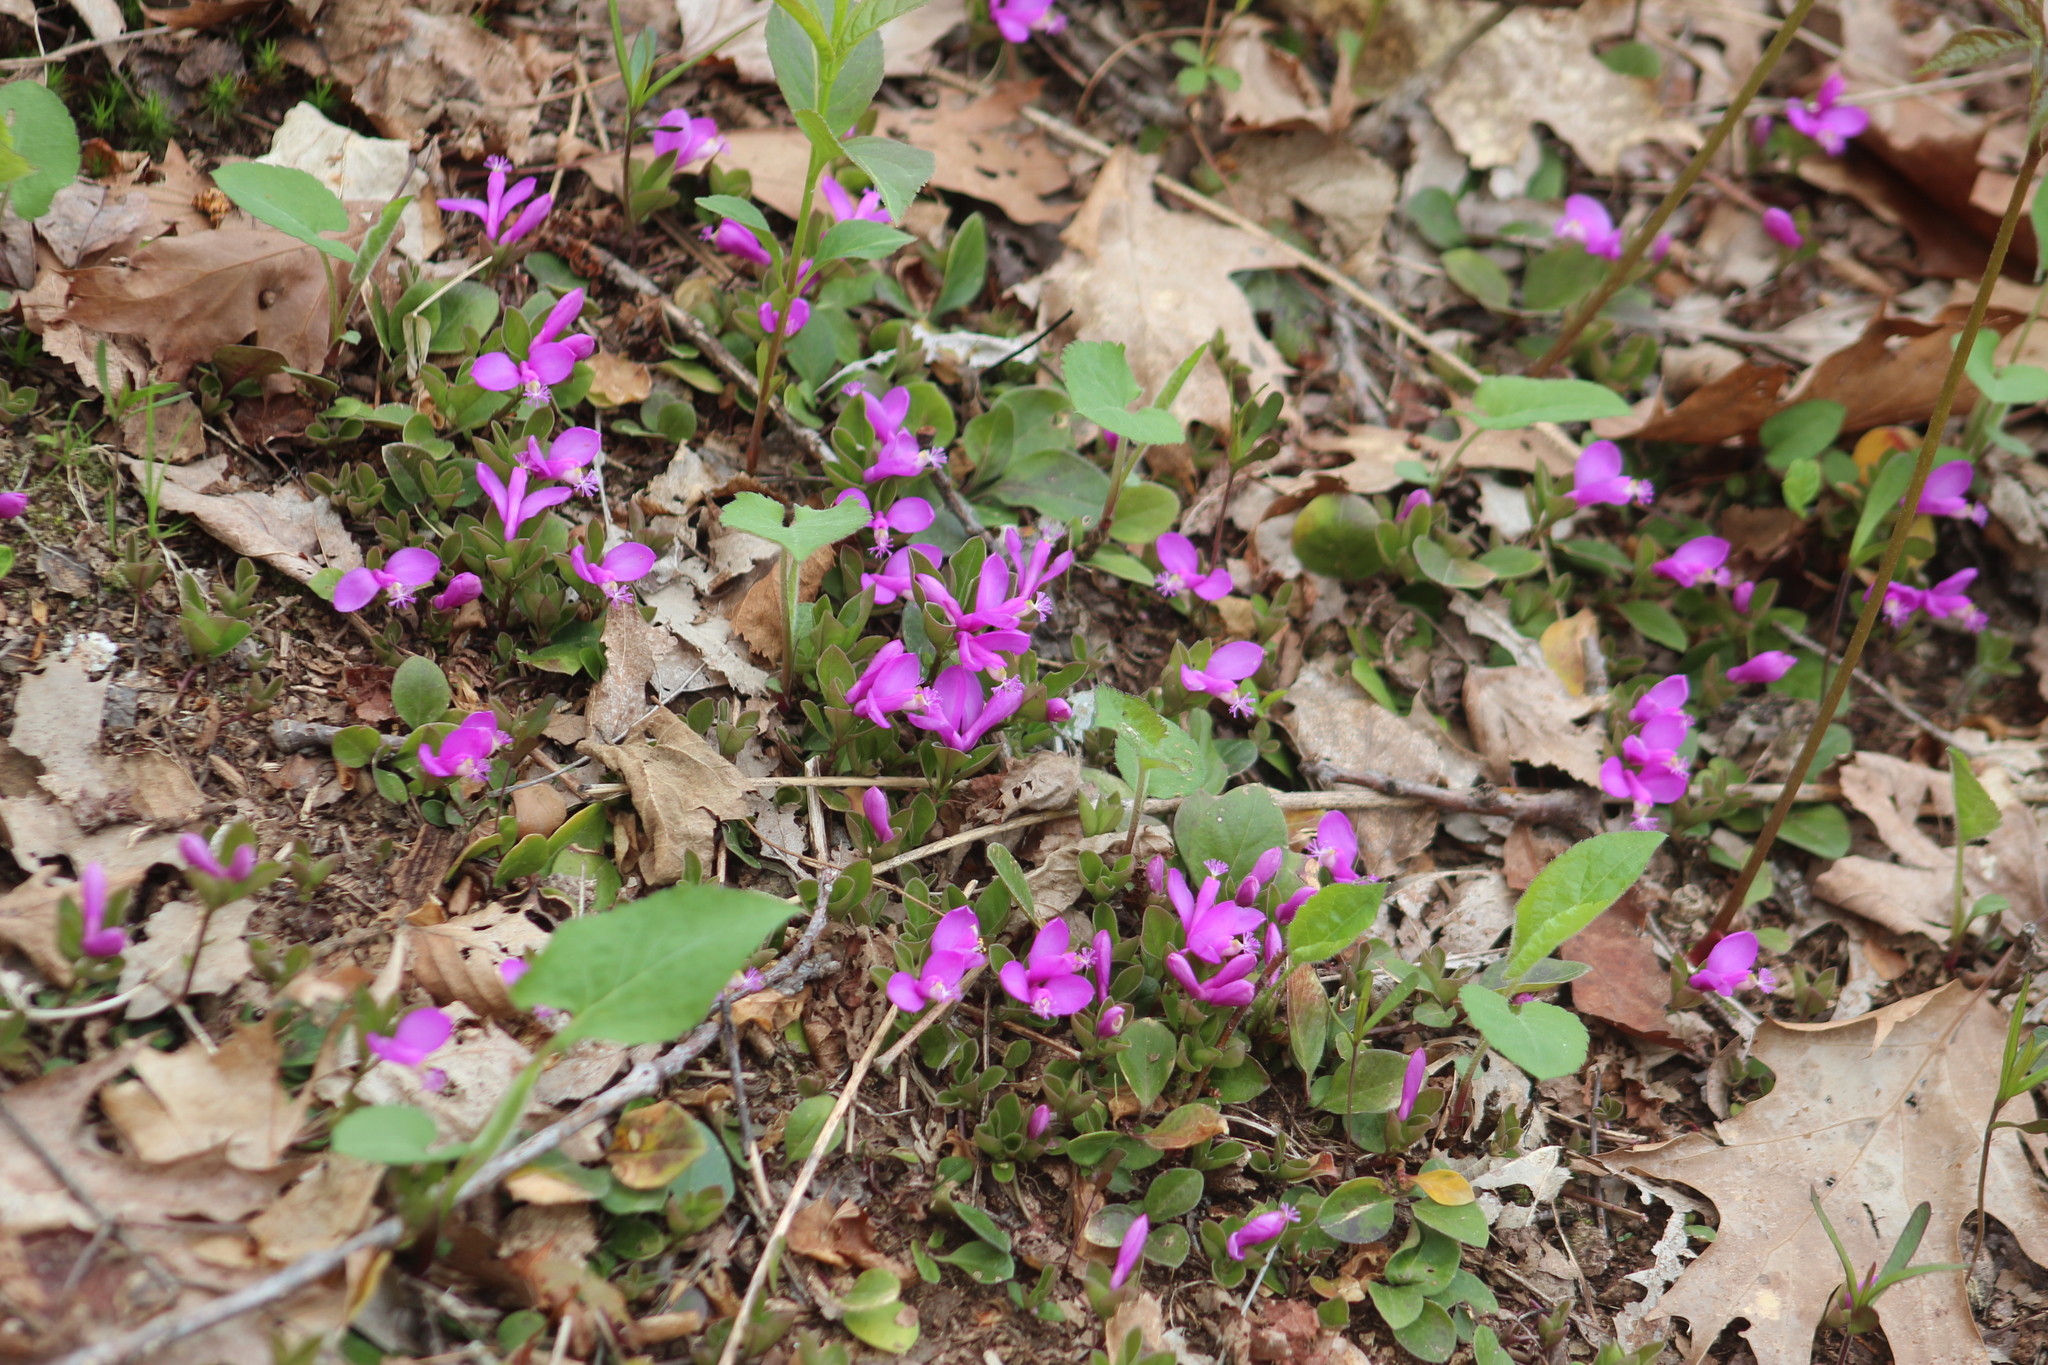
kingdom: Plantae
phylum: Tracheophyta
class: Magnoliopsida
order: Fabales
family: Polygalaceae
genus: Polygaloides
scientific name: Polygaloides paucifolia
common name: Bird-on-the-wing
